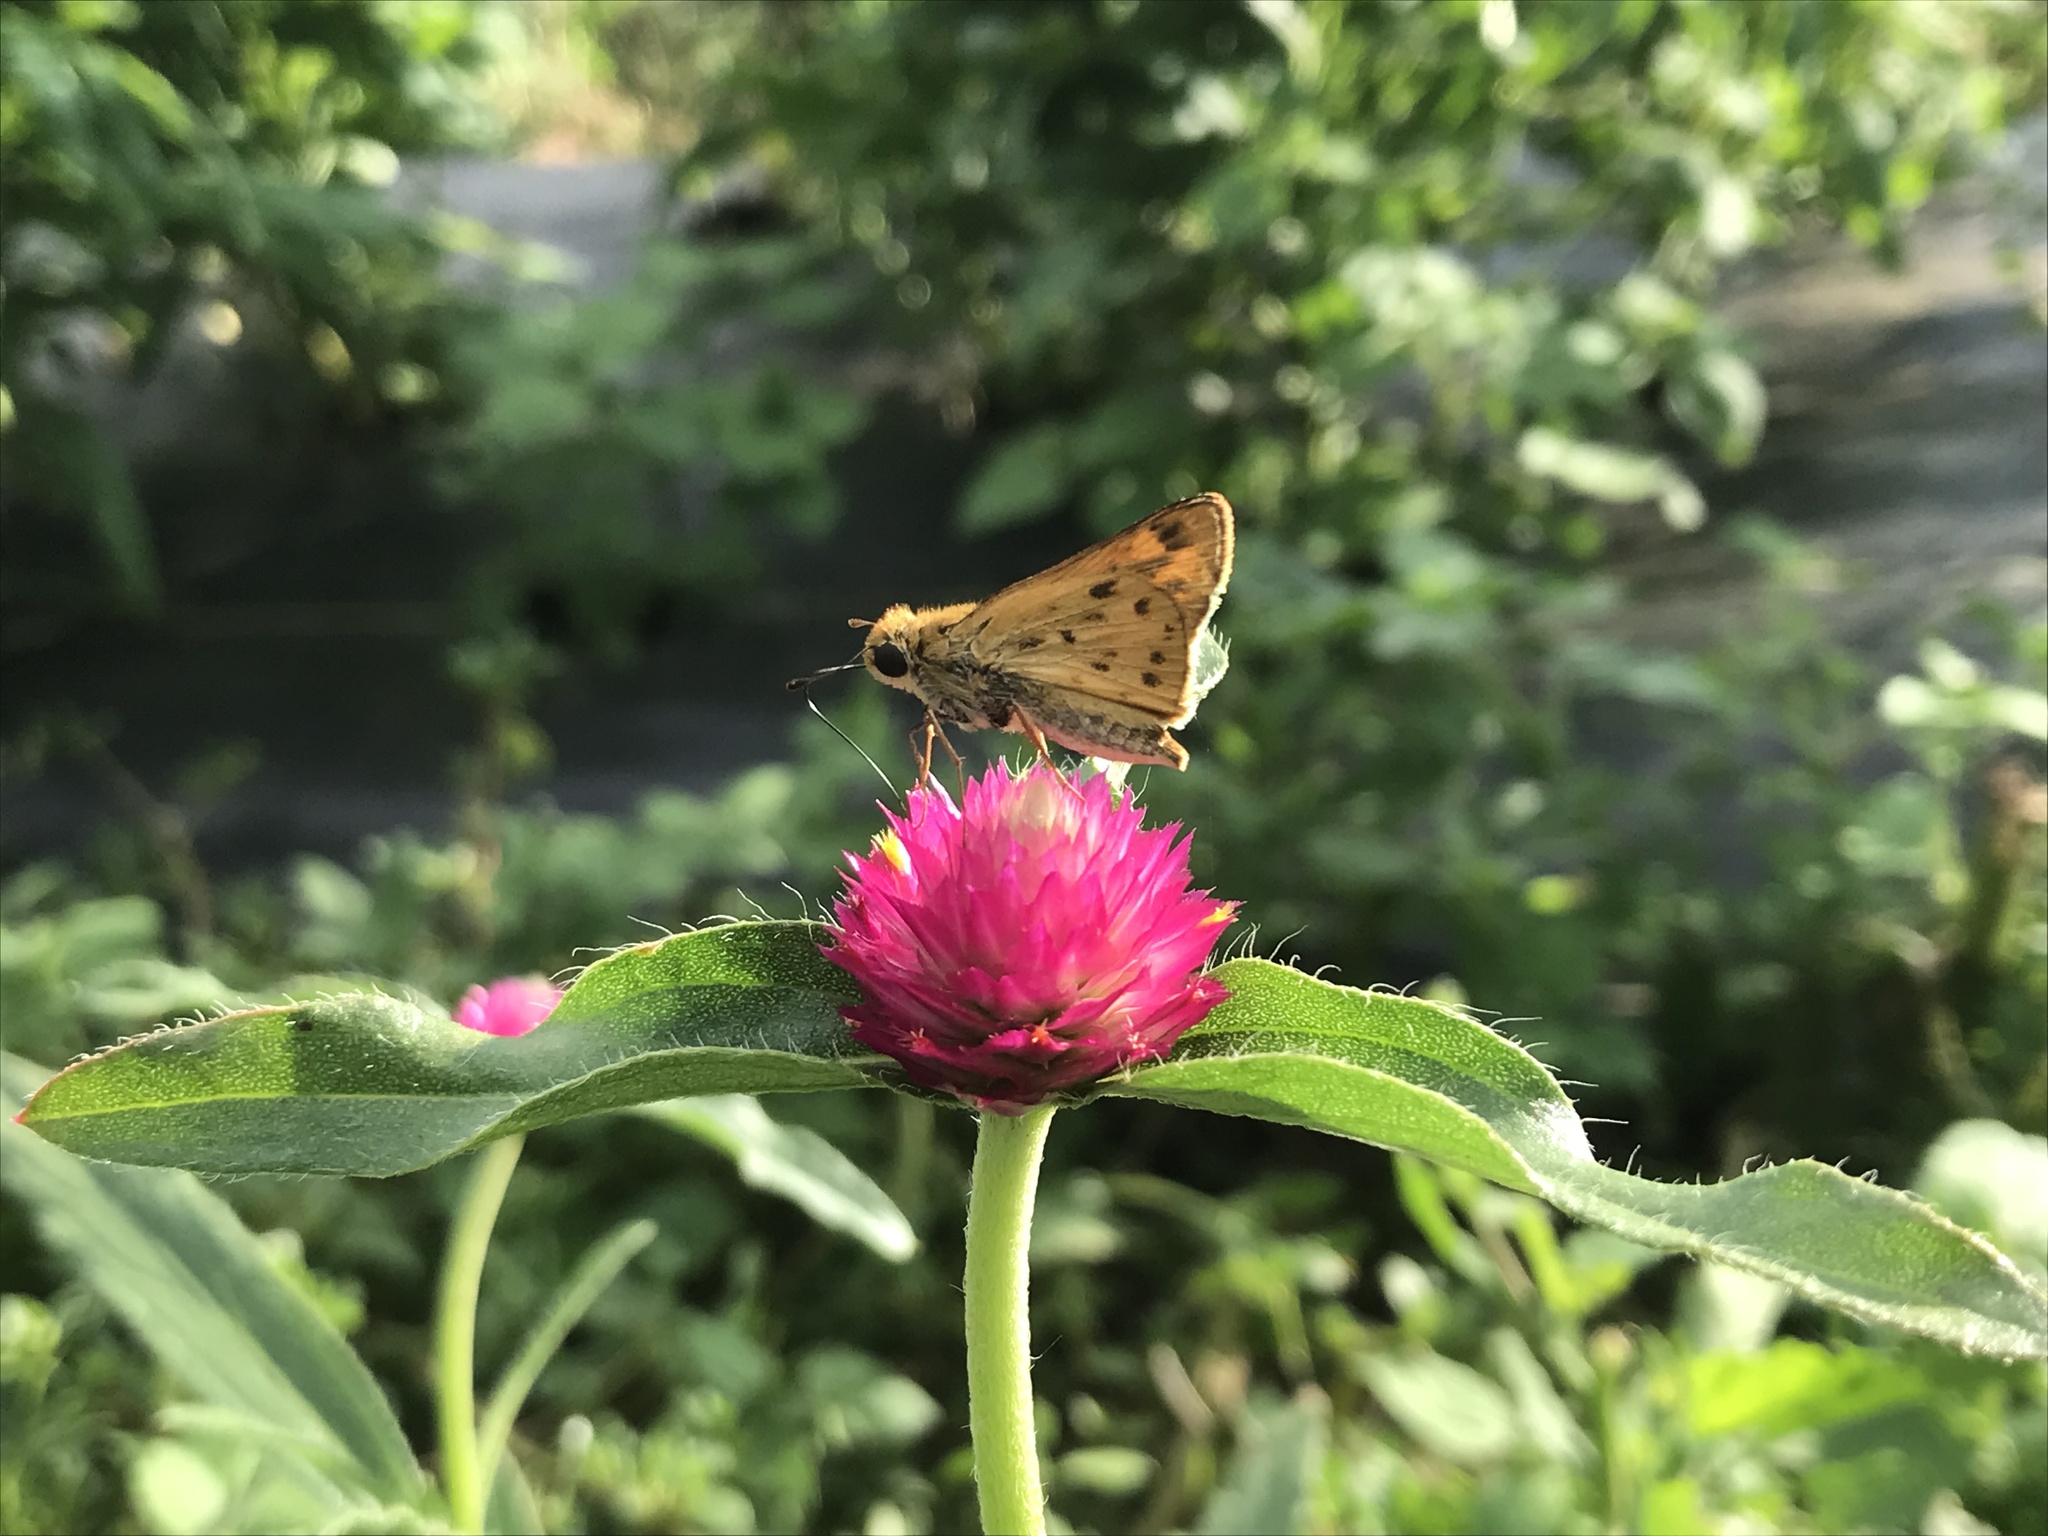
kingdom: Animalia
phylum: Arthropoda
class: Insecta
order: Lepidoptera
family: Hesperiidae
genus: Hylephila
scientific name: Hylephila phyleus
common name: Fiery skipper
